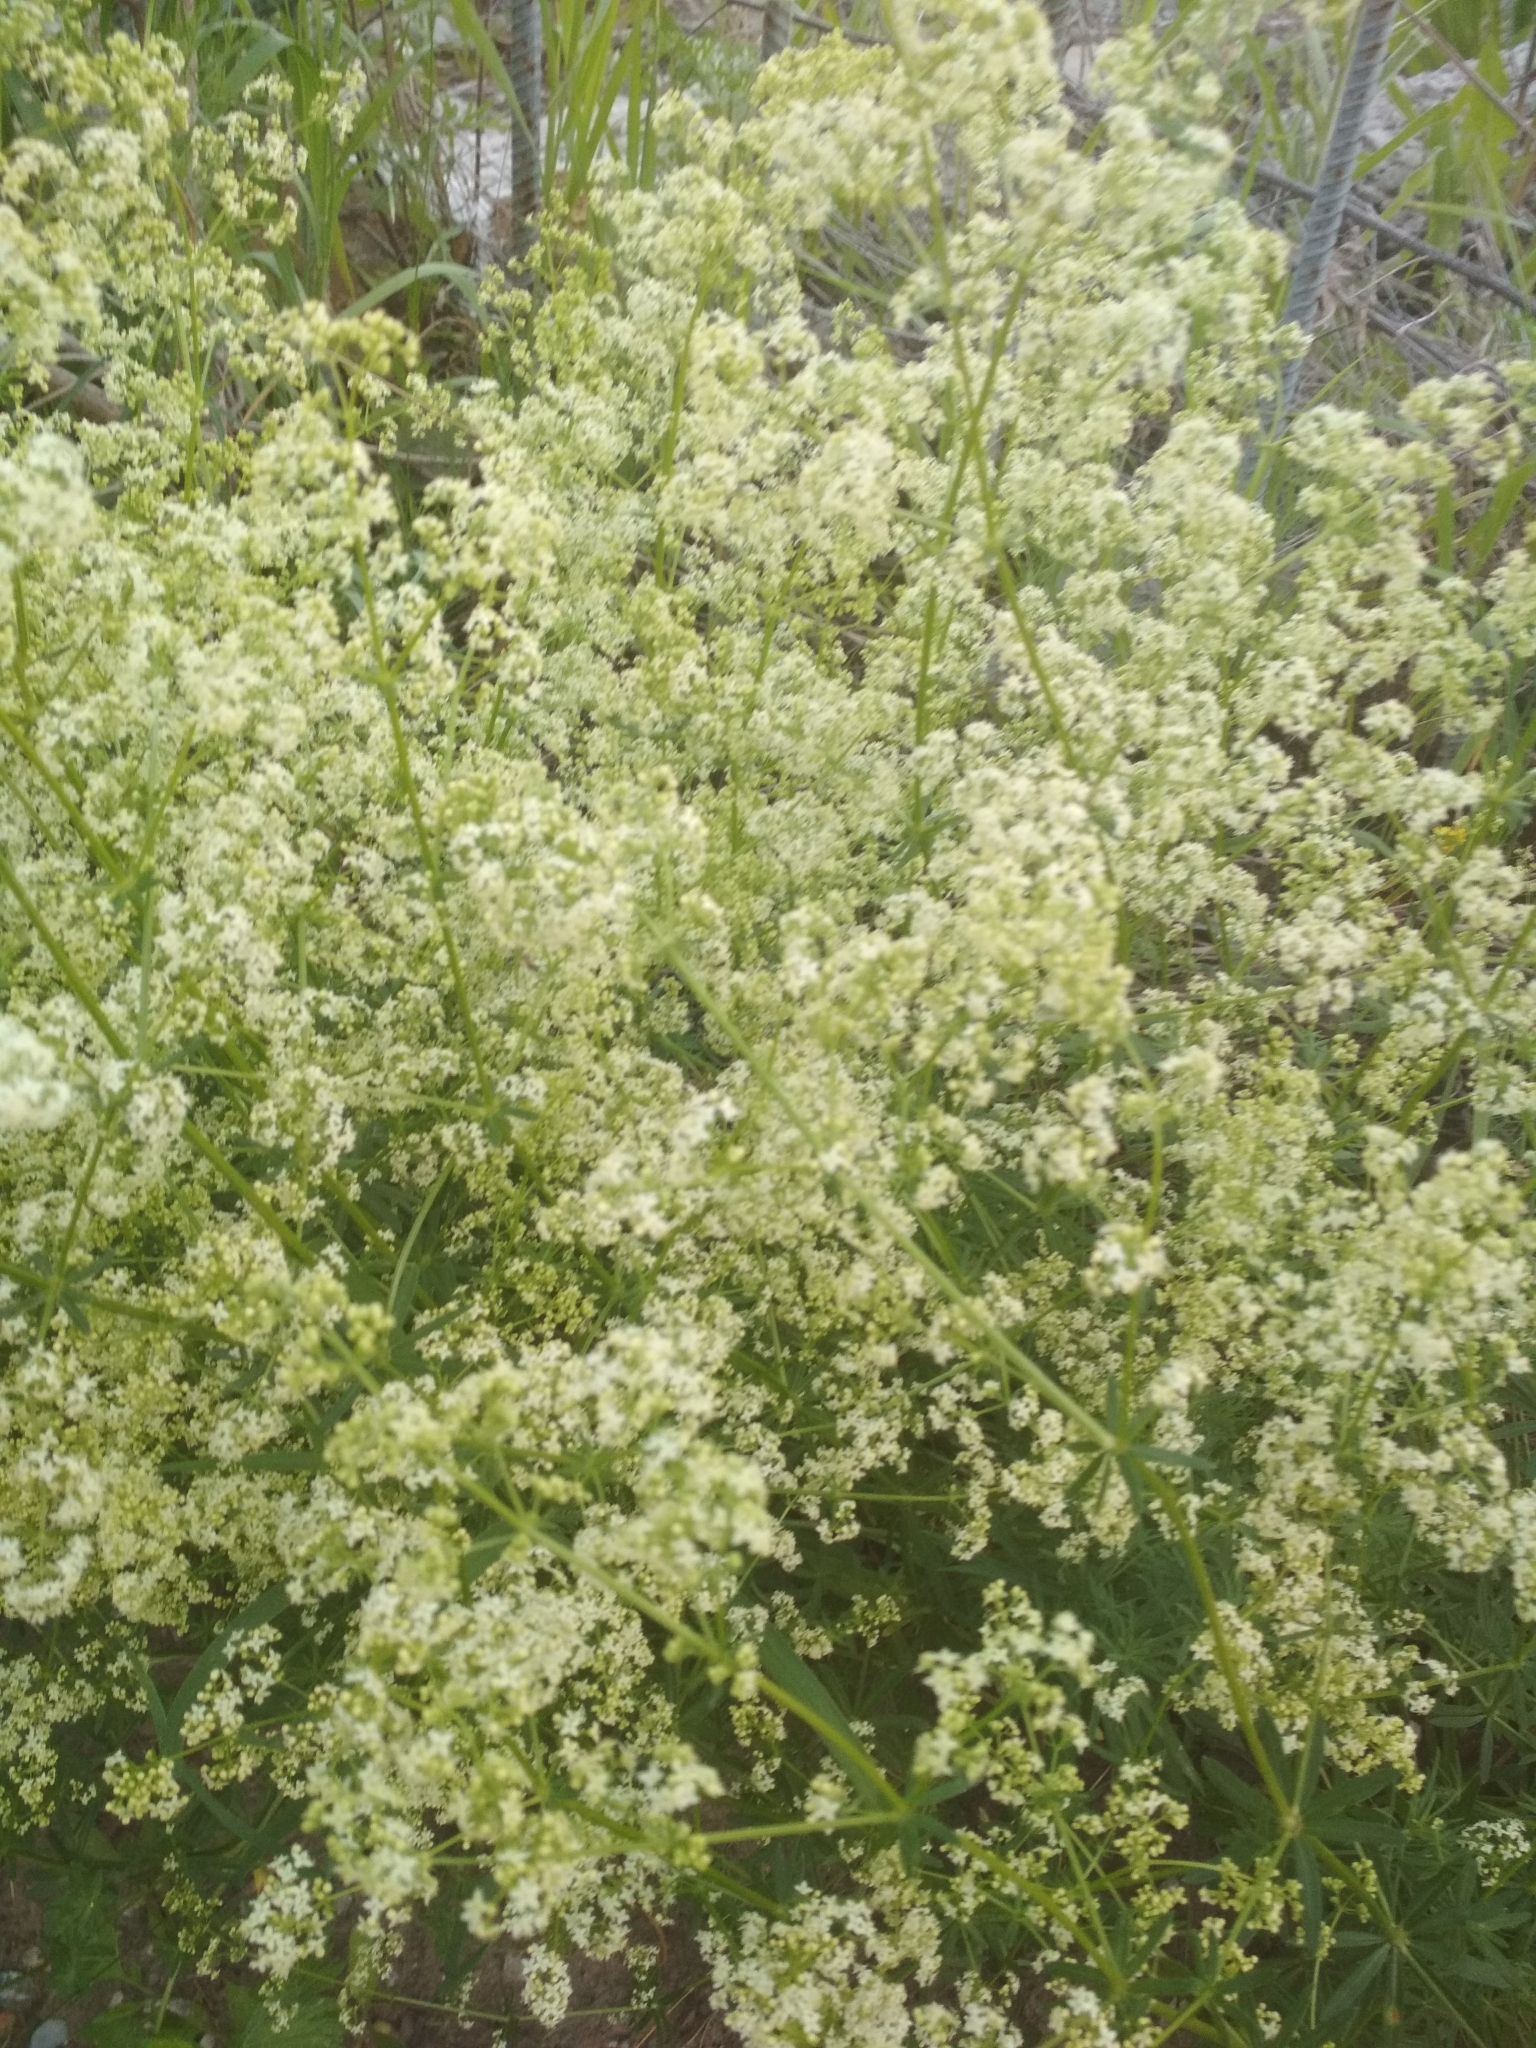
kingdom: Plantae
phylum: Tracheophyta
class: Magnoliopsida
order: Gentianales
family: Rubiaceae
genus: Galium
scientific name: Galium mollugo
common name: Hedge bedstraw
